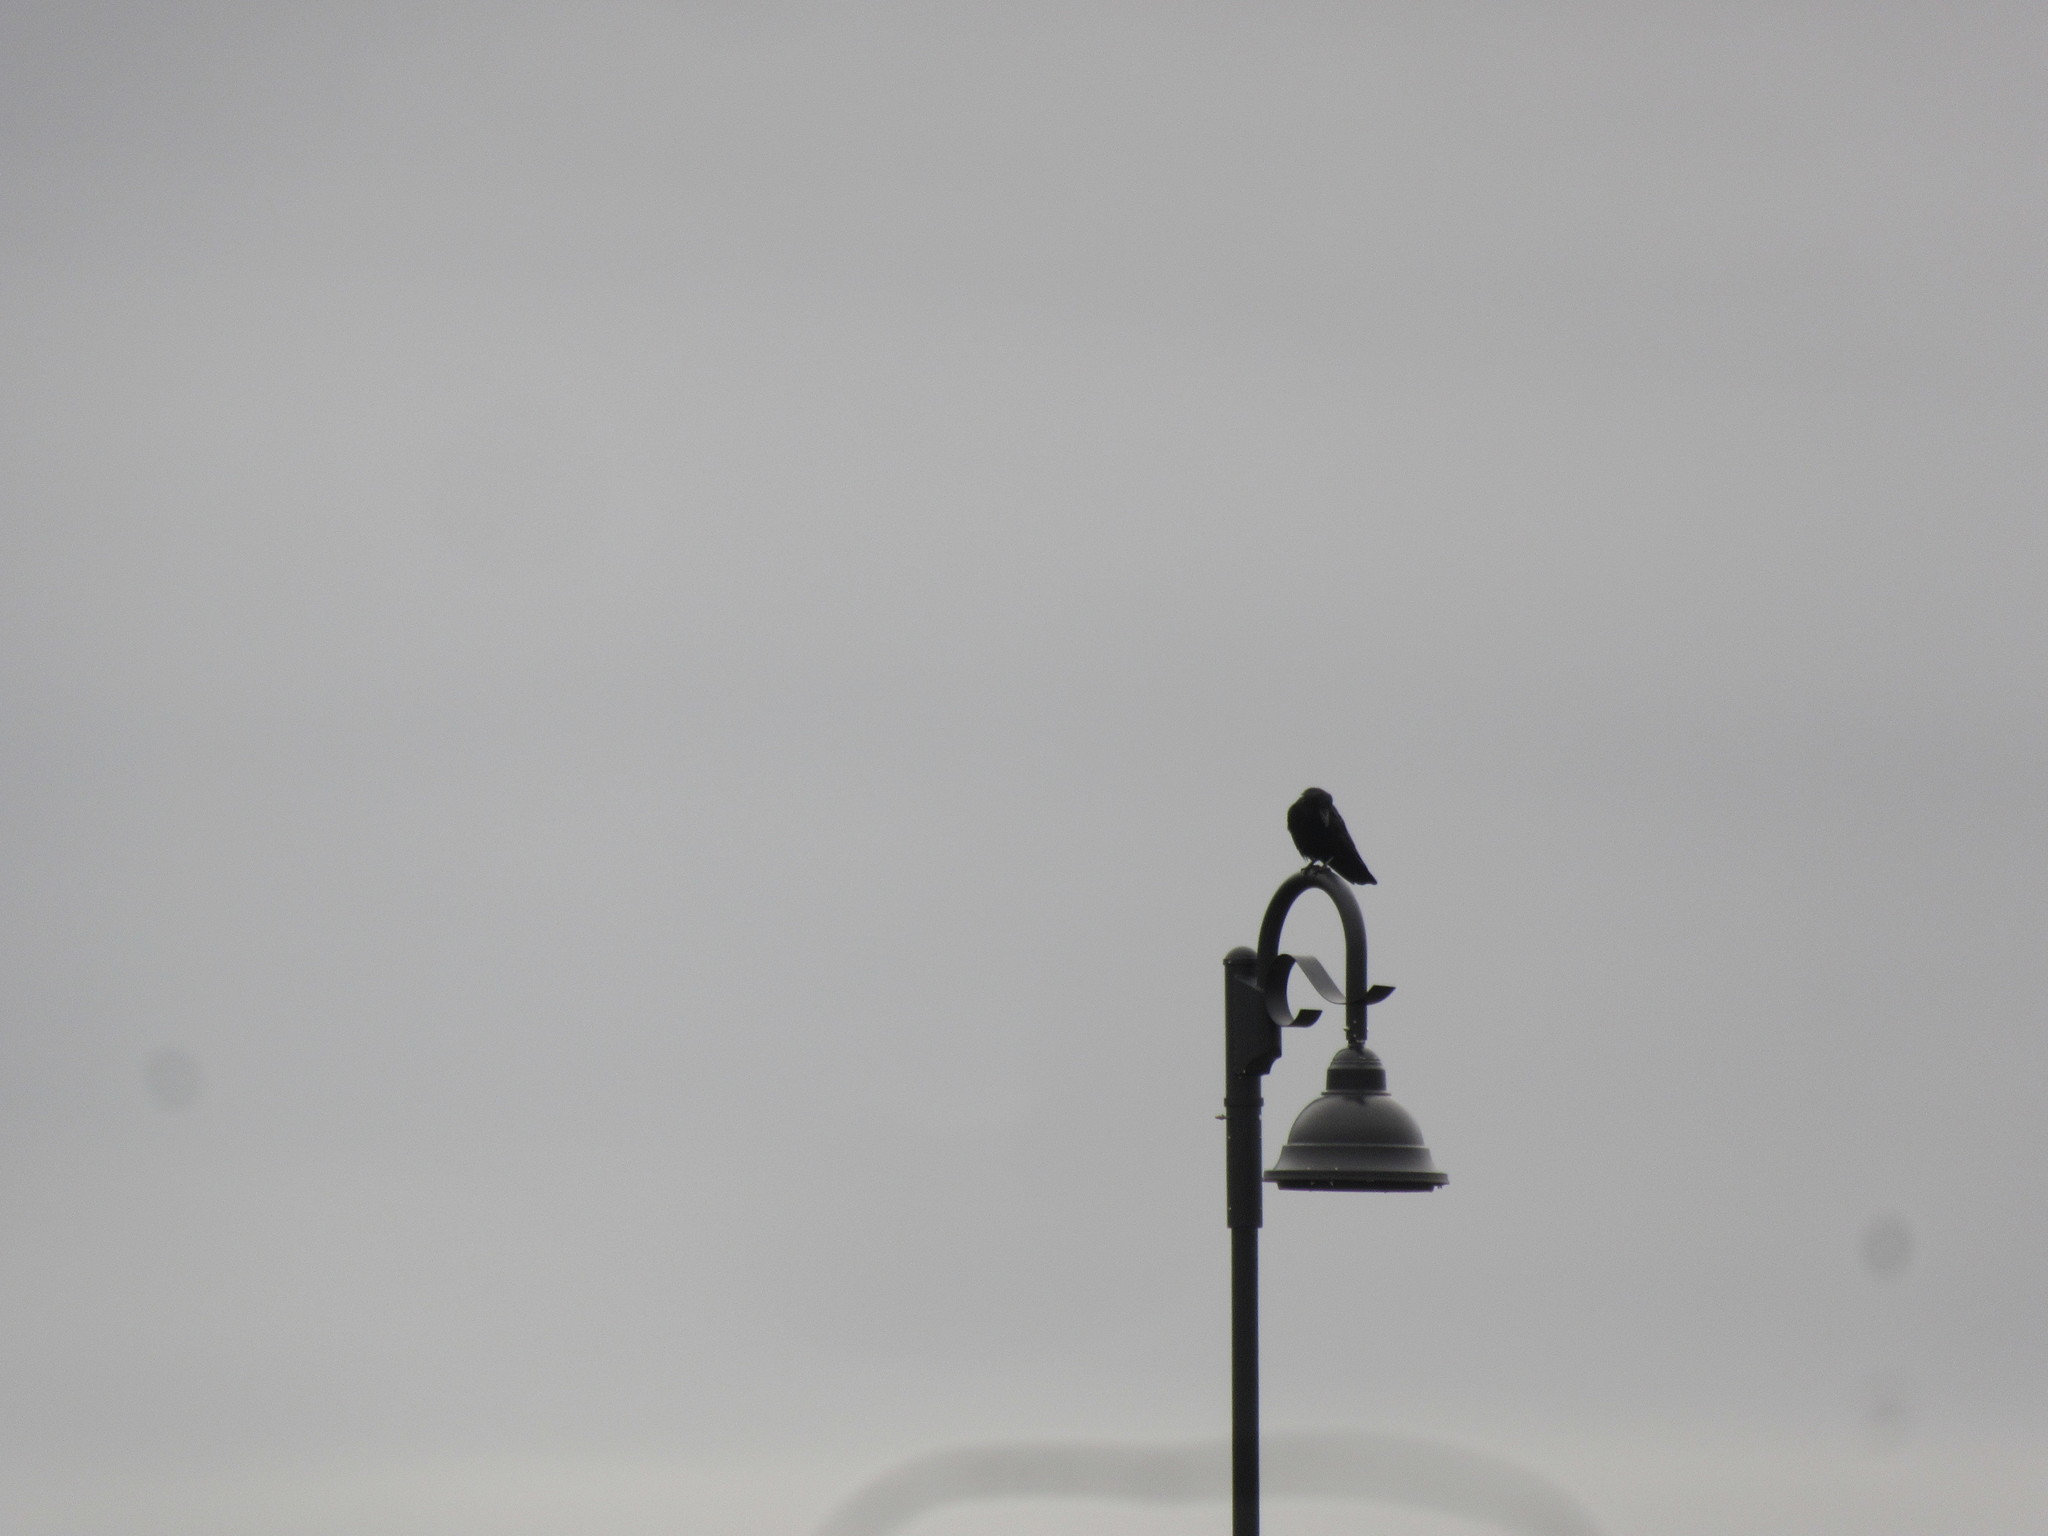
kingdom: Animalia
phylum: Chordata
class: Aves
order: Passeriformes
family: Corvidae
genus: Corvus
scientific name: Corvus brachyrhynchos
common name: American crow
